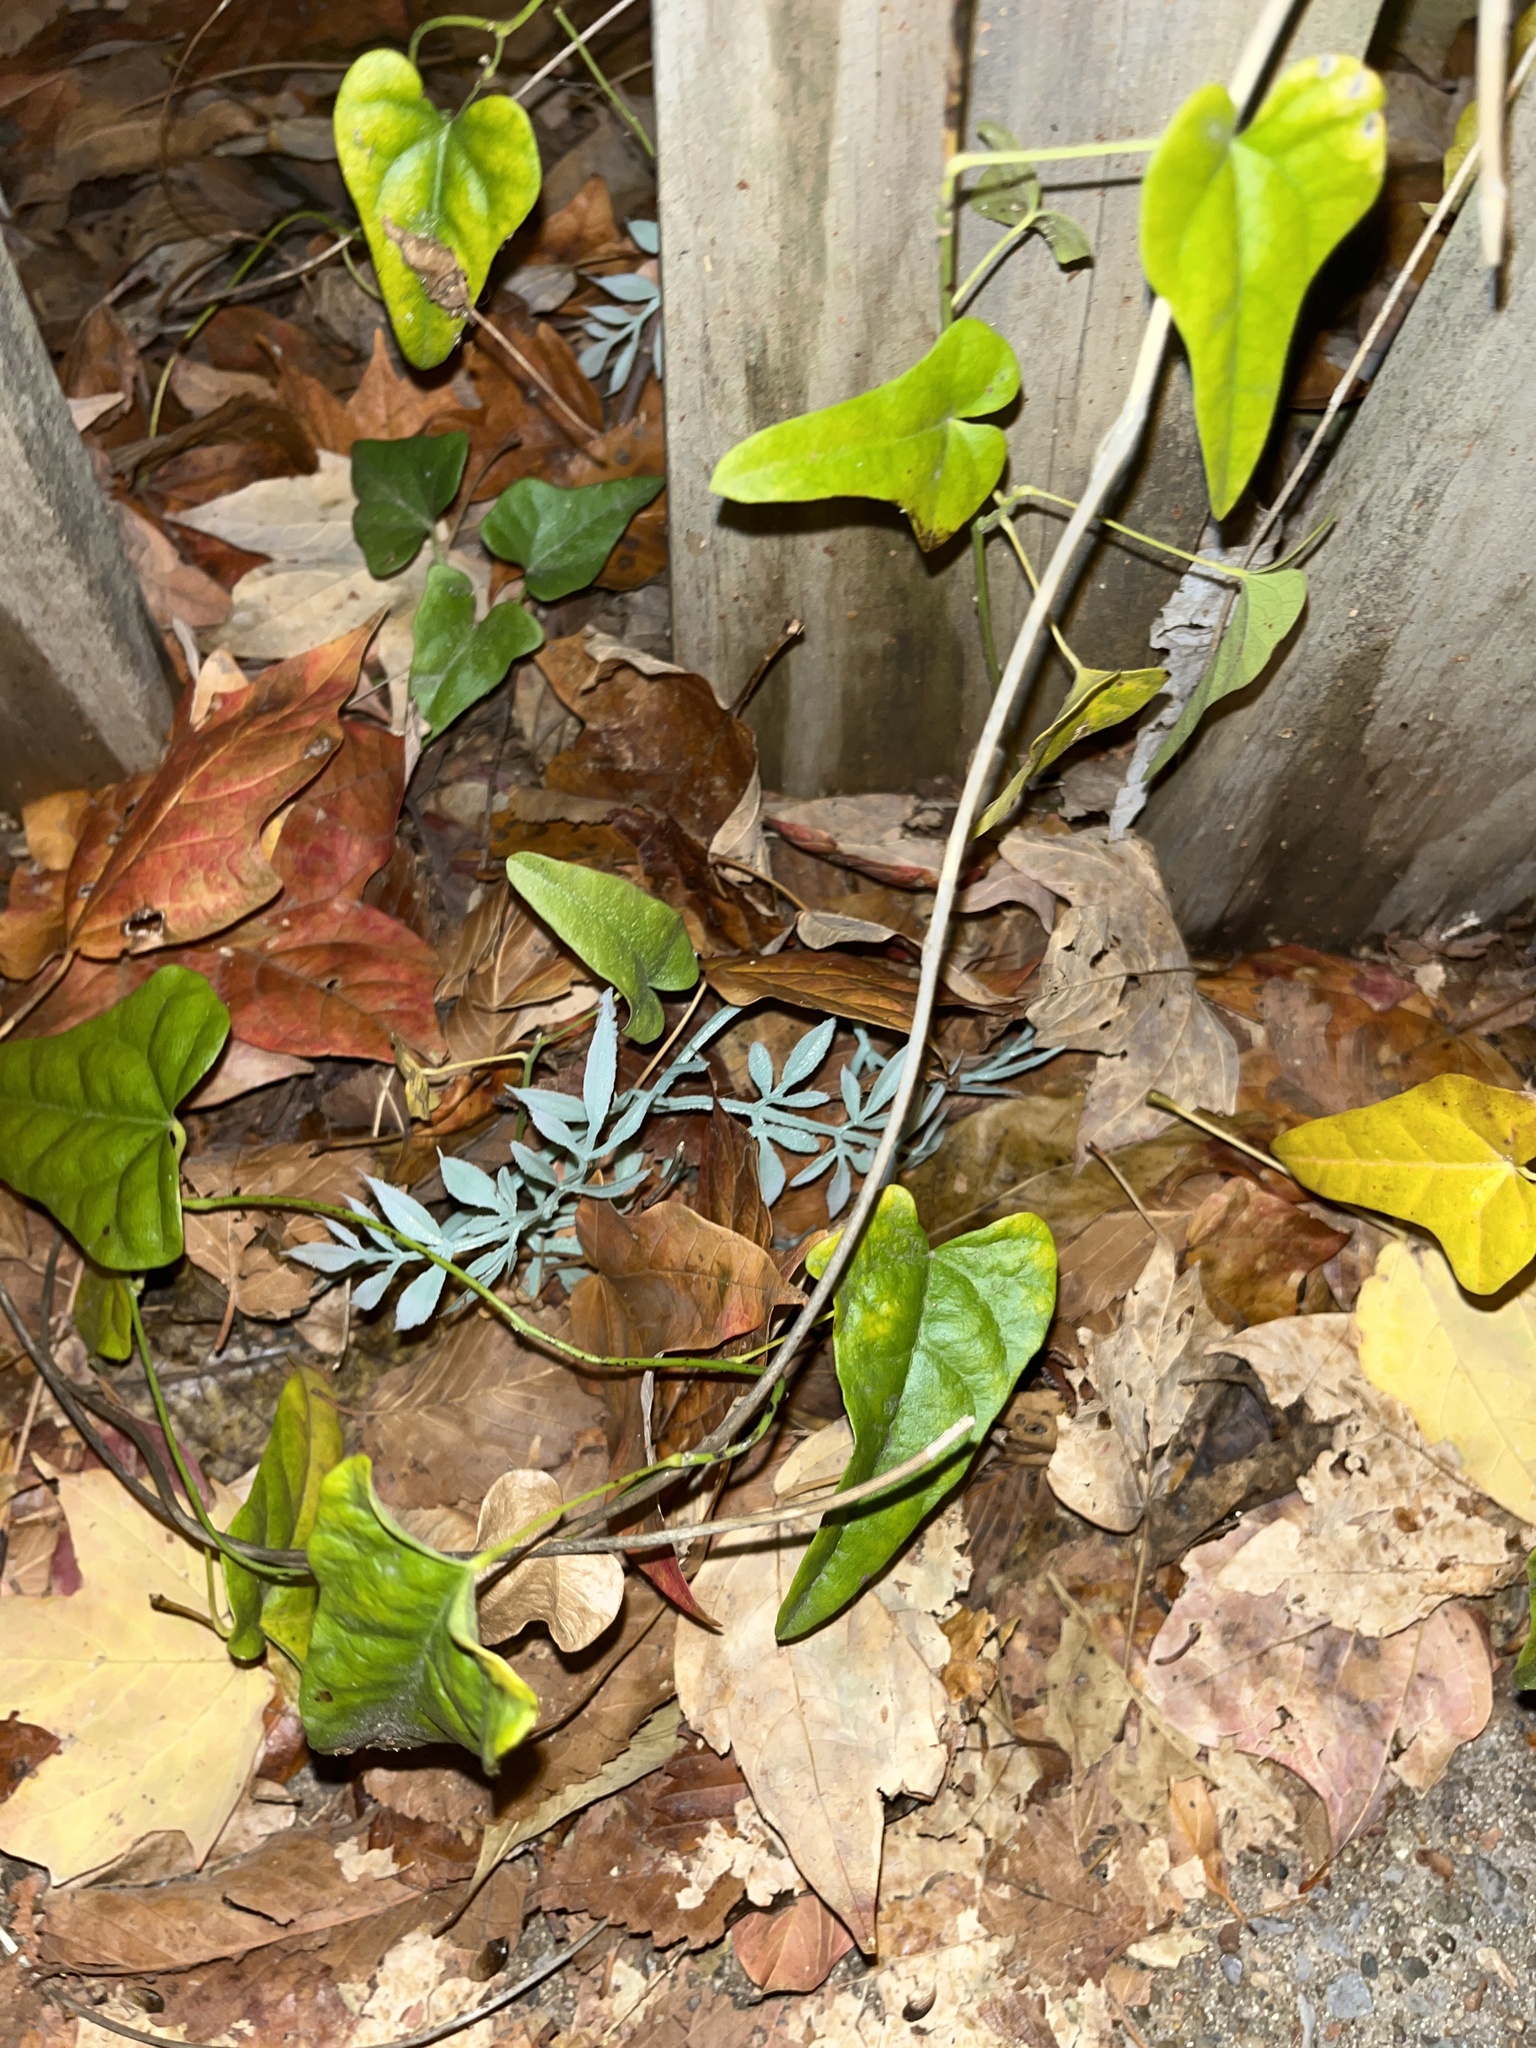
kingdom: Plantae
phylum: Tracheophyta
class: Magnoliopsida
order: Ranunculales
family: Menispermaceae
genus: Cocculus
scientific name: Cocculus carolinus
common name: Carolina moonseed
